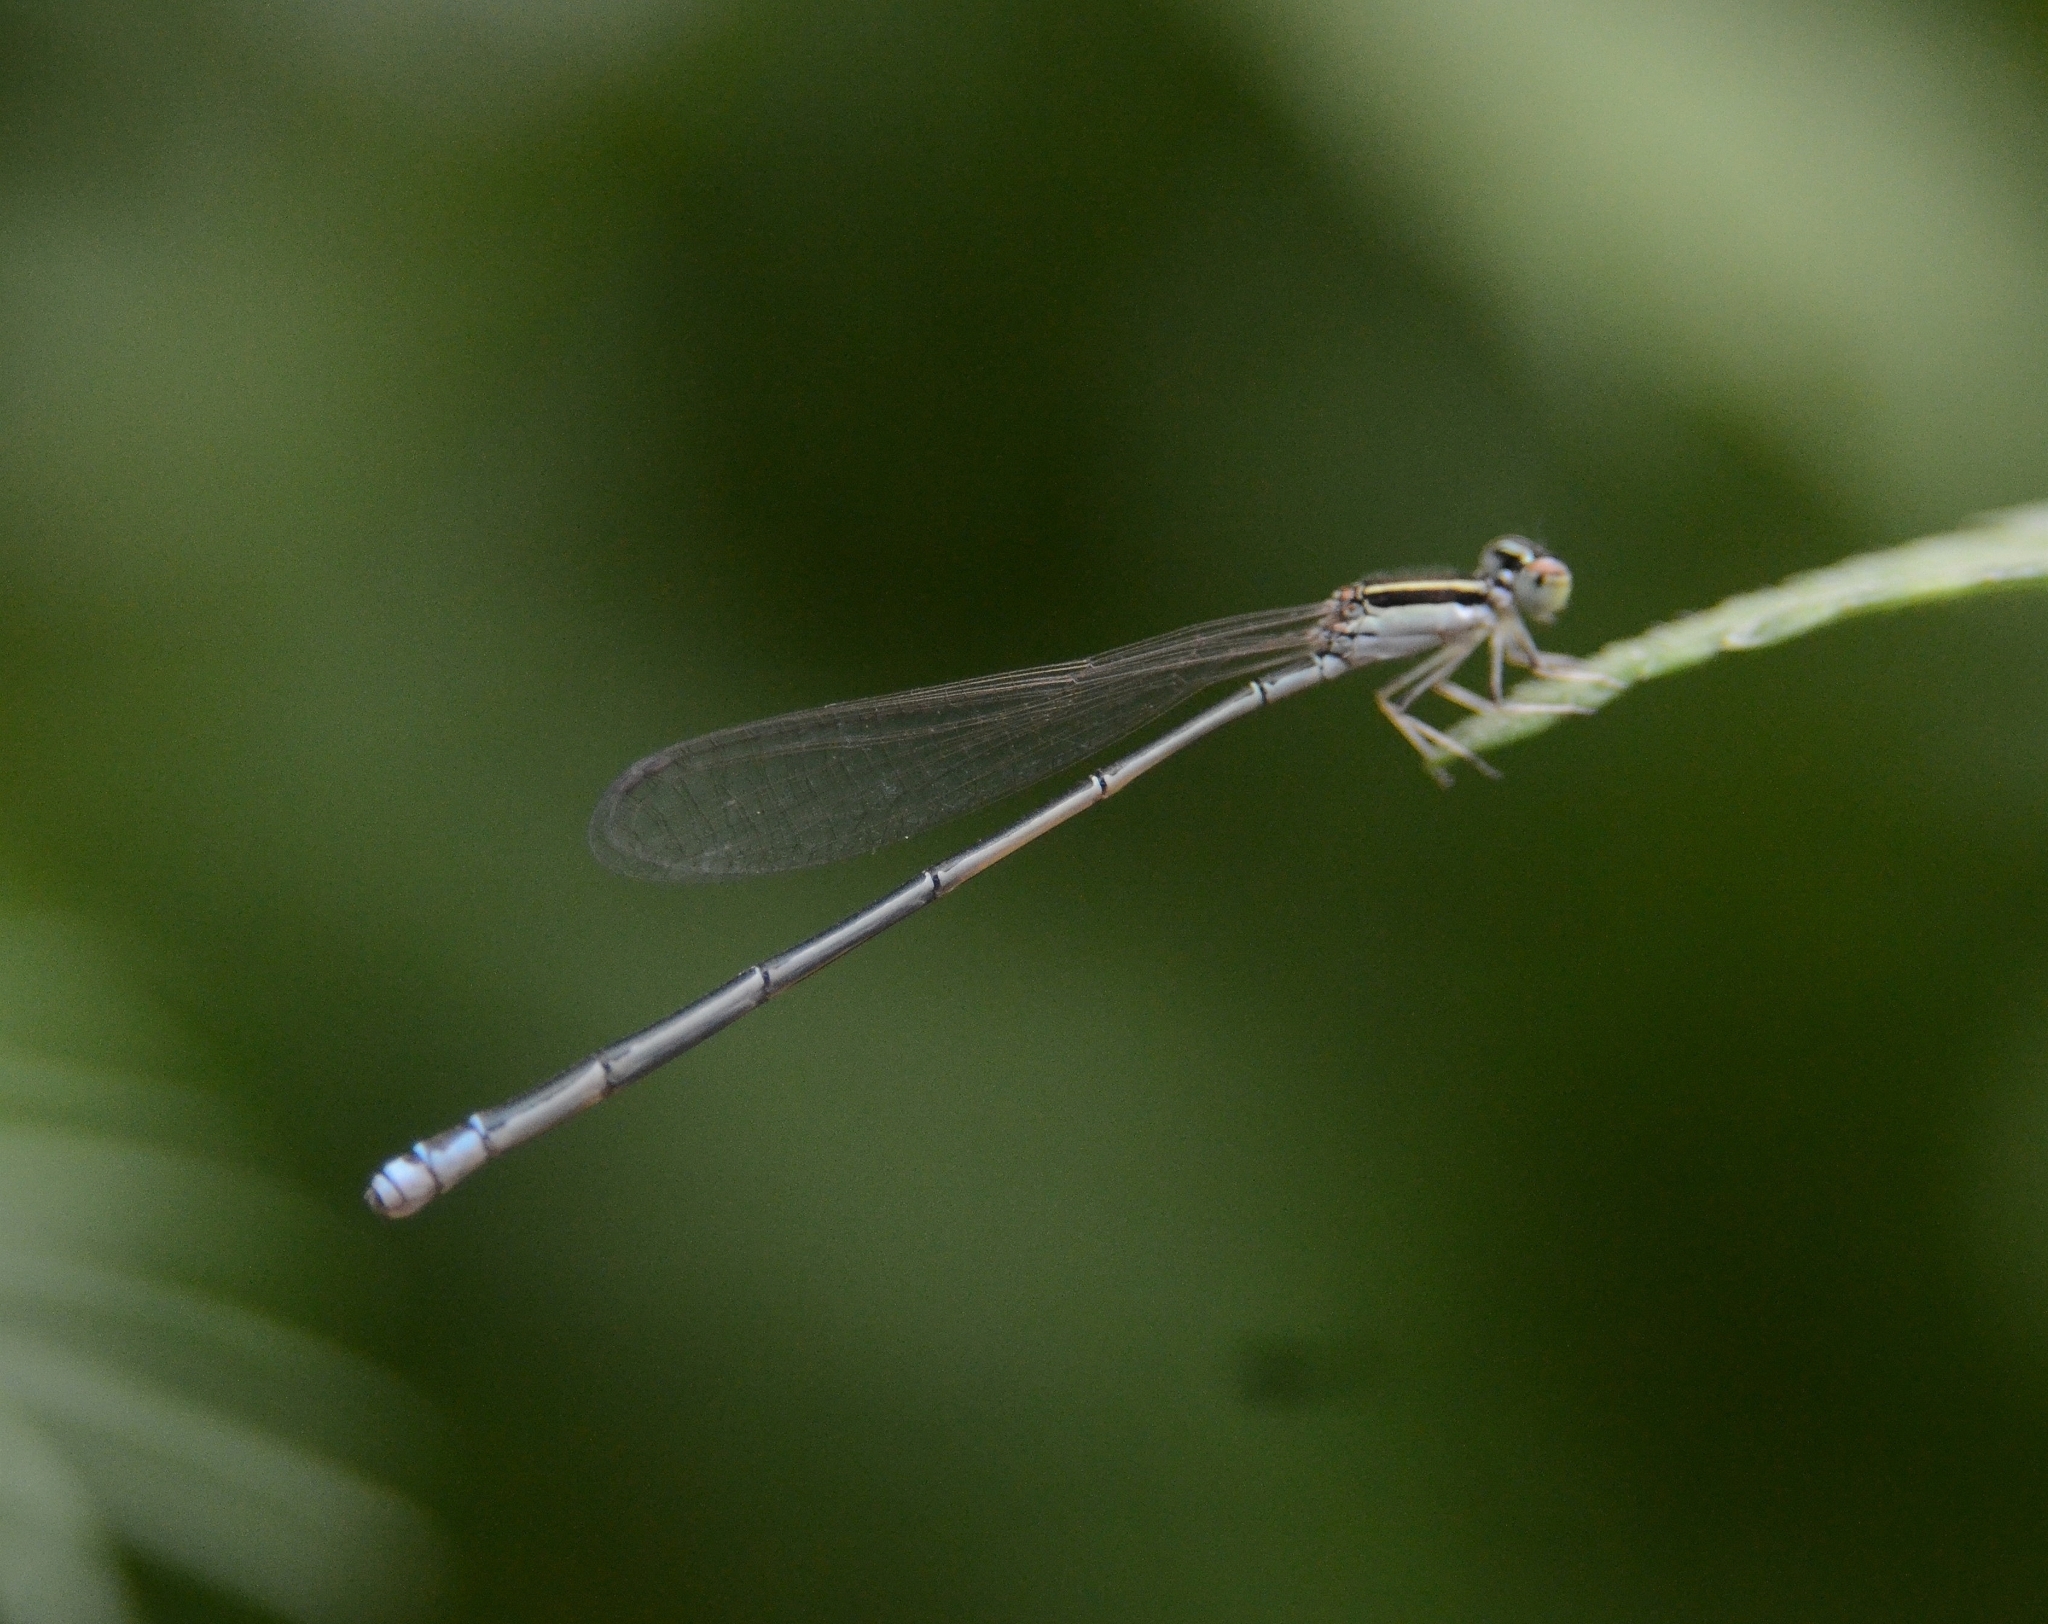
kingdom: Animalia
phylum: Arthropoda
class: Insecta
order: Odonata
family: Coenagrionidae
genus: Aciagrion
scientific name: Aciagrion occidentale
